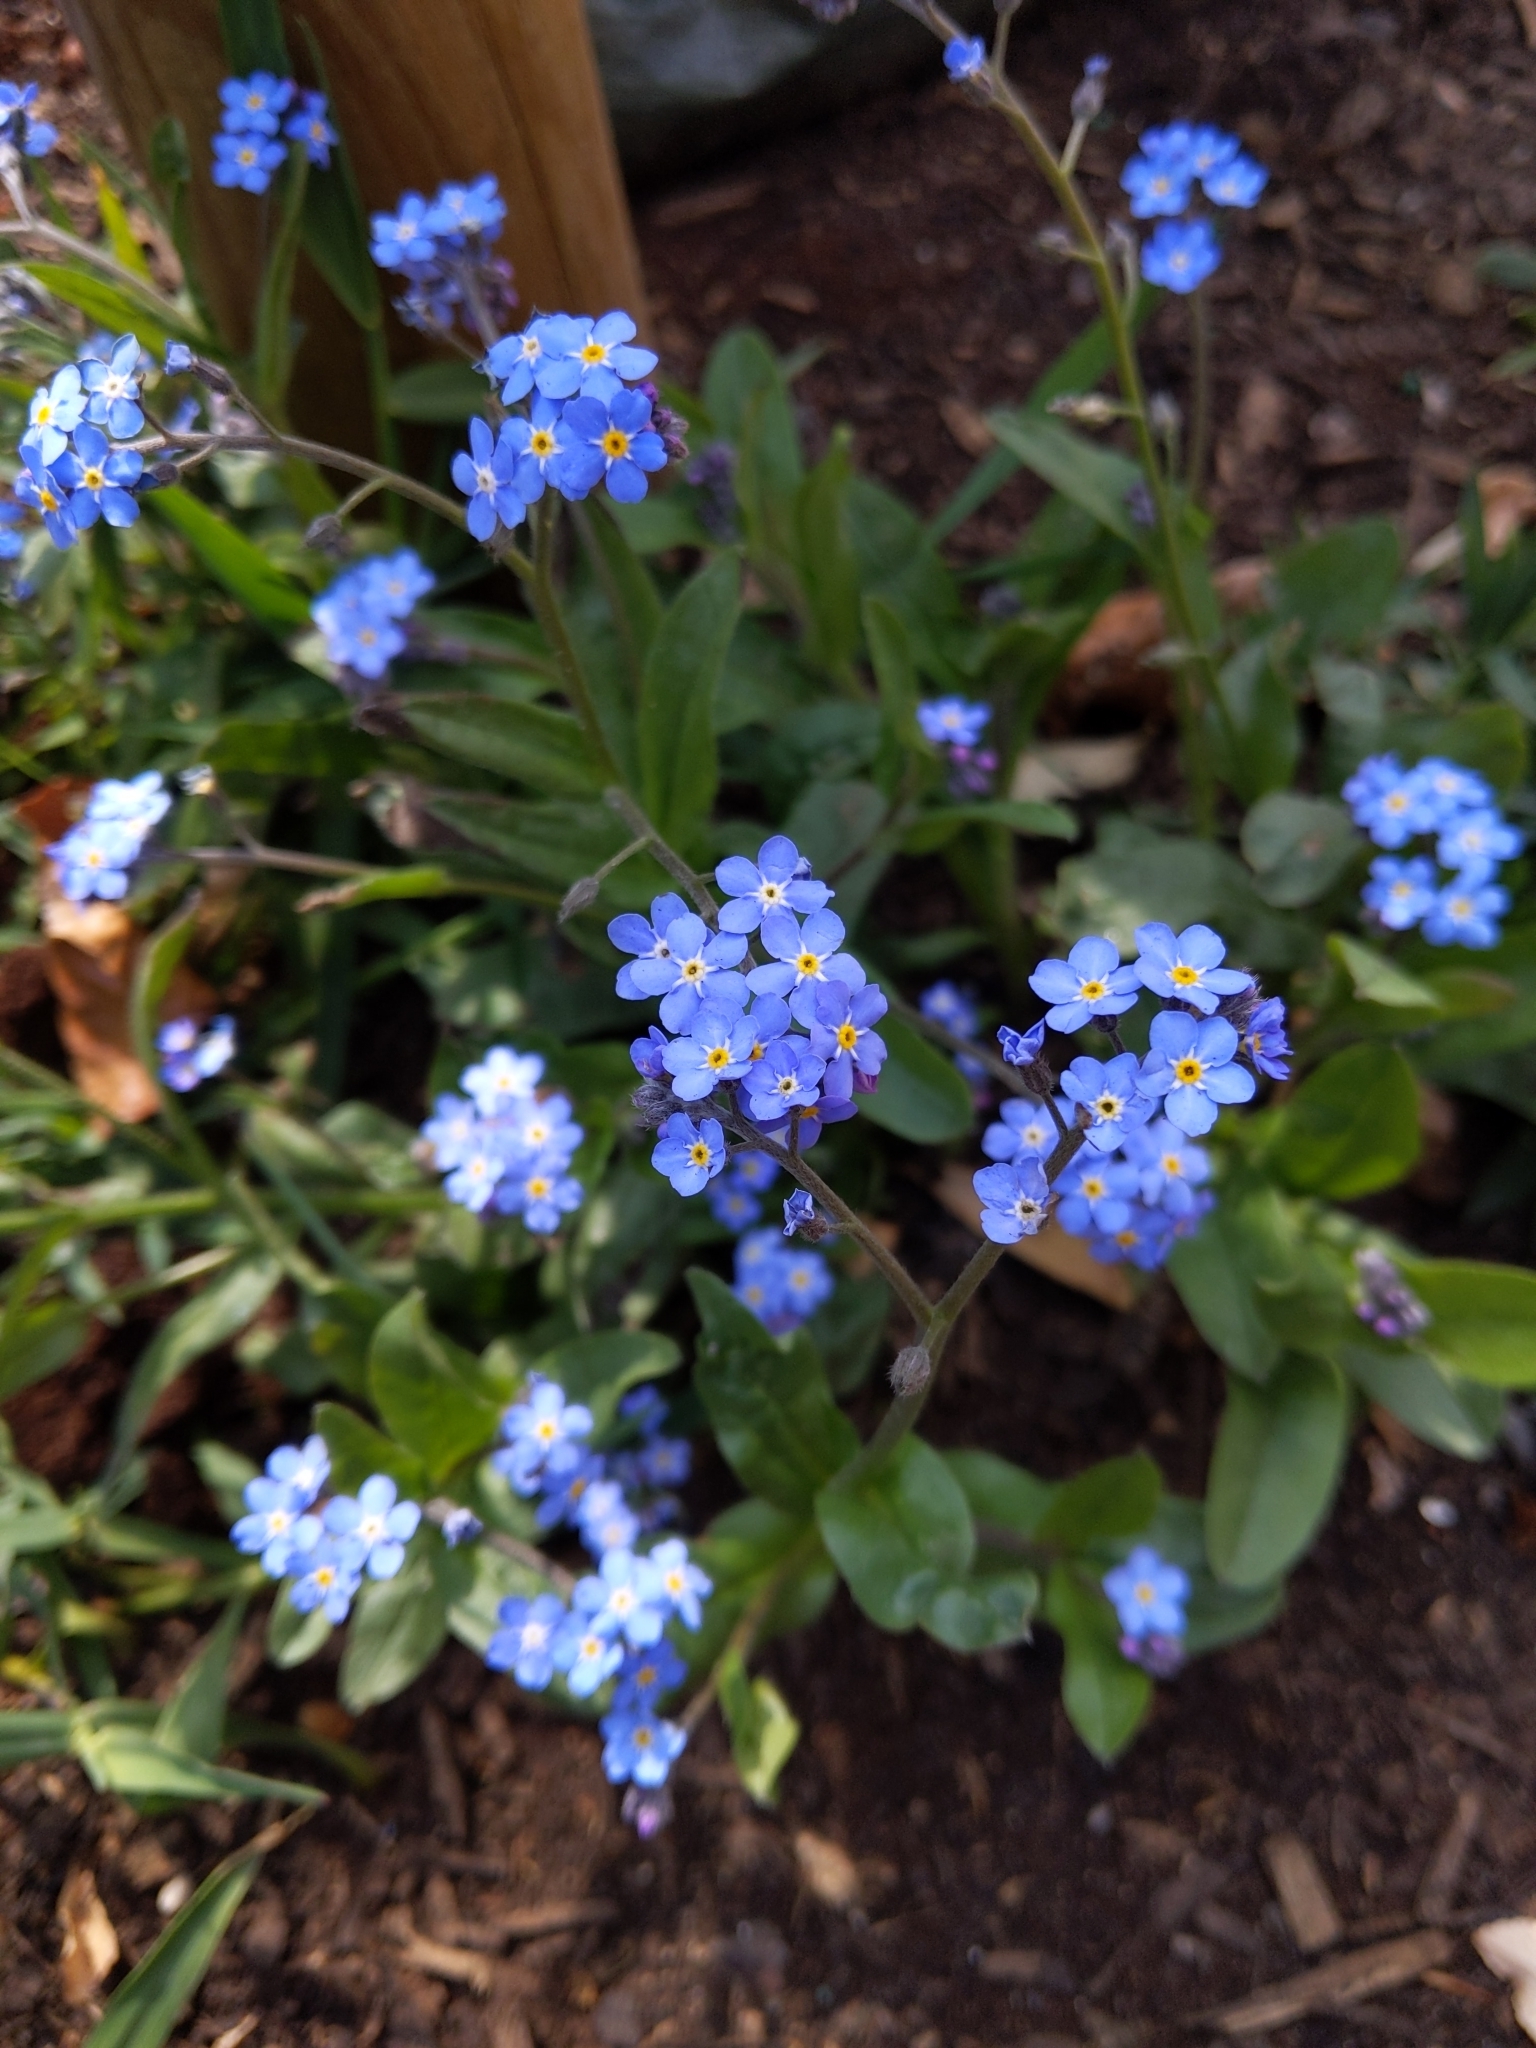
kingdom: Plantae
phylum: Tracheophyta
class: Magnoliopsida
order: Boraginales
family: Boraginaceae
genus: Myosotis
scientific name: Myosotis sylvatica
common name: Wood forget-me-not
